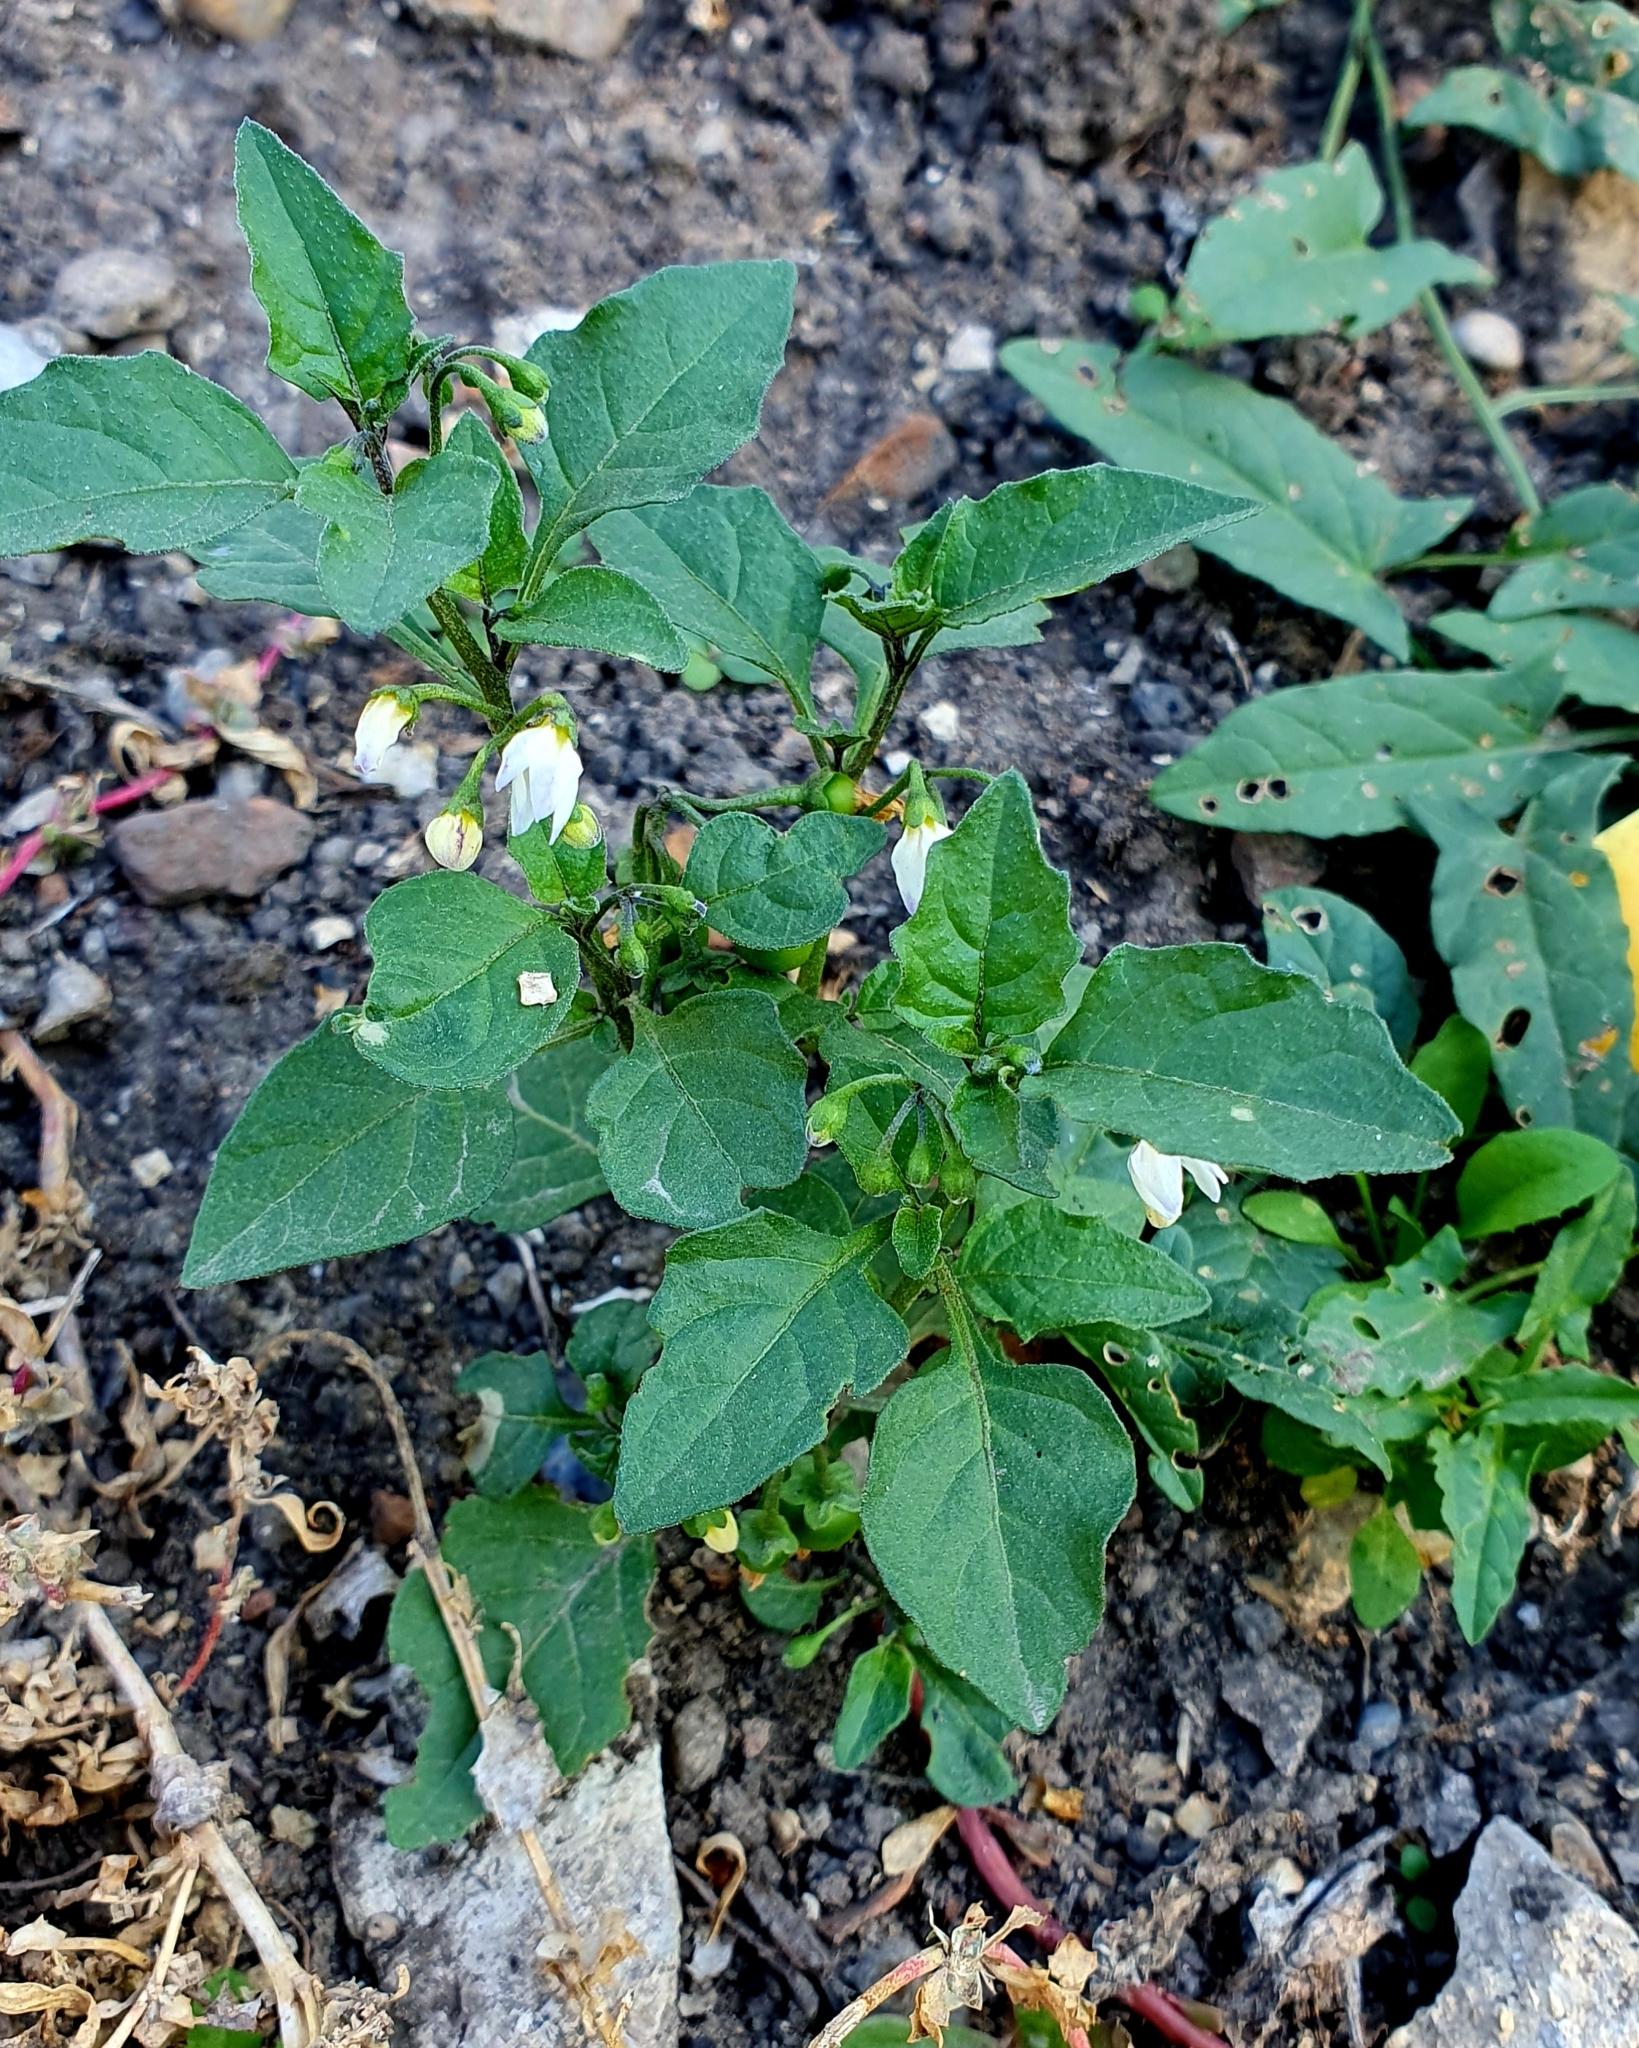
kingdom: Plantae
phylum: Tracheophyta
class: Magnoliopsida
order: Solanales
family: Solanaceae
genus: Solanum
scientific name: Solanum nigrum
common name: Black nightshade
